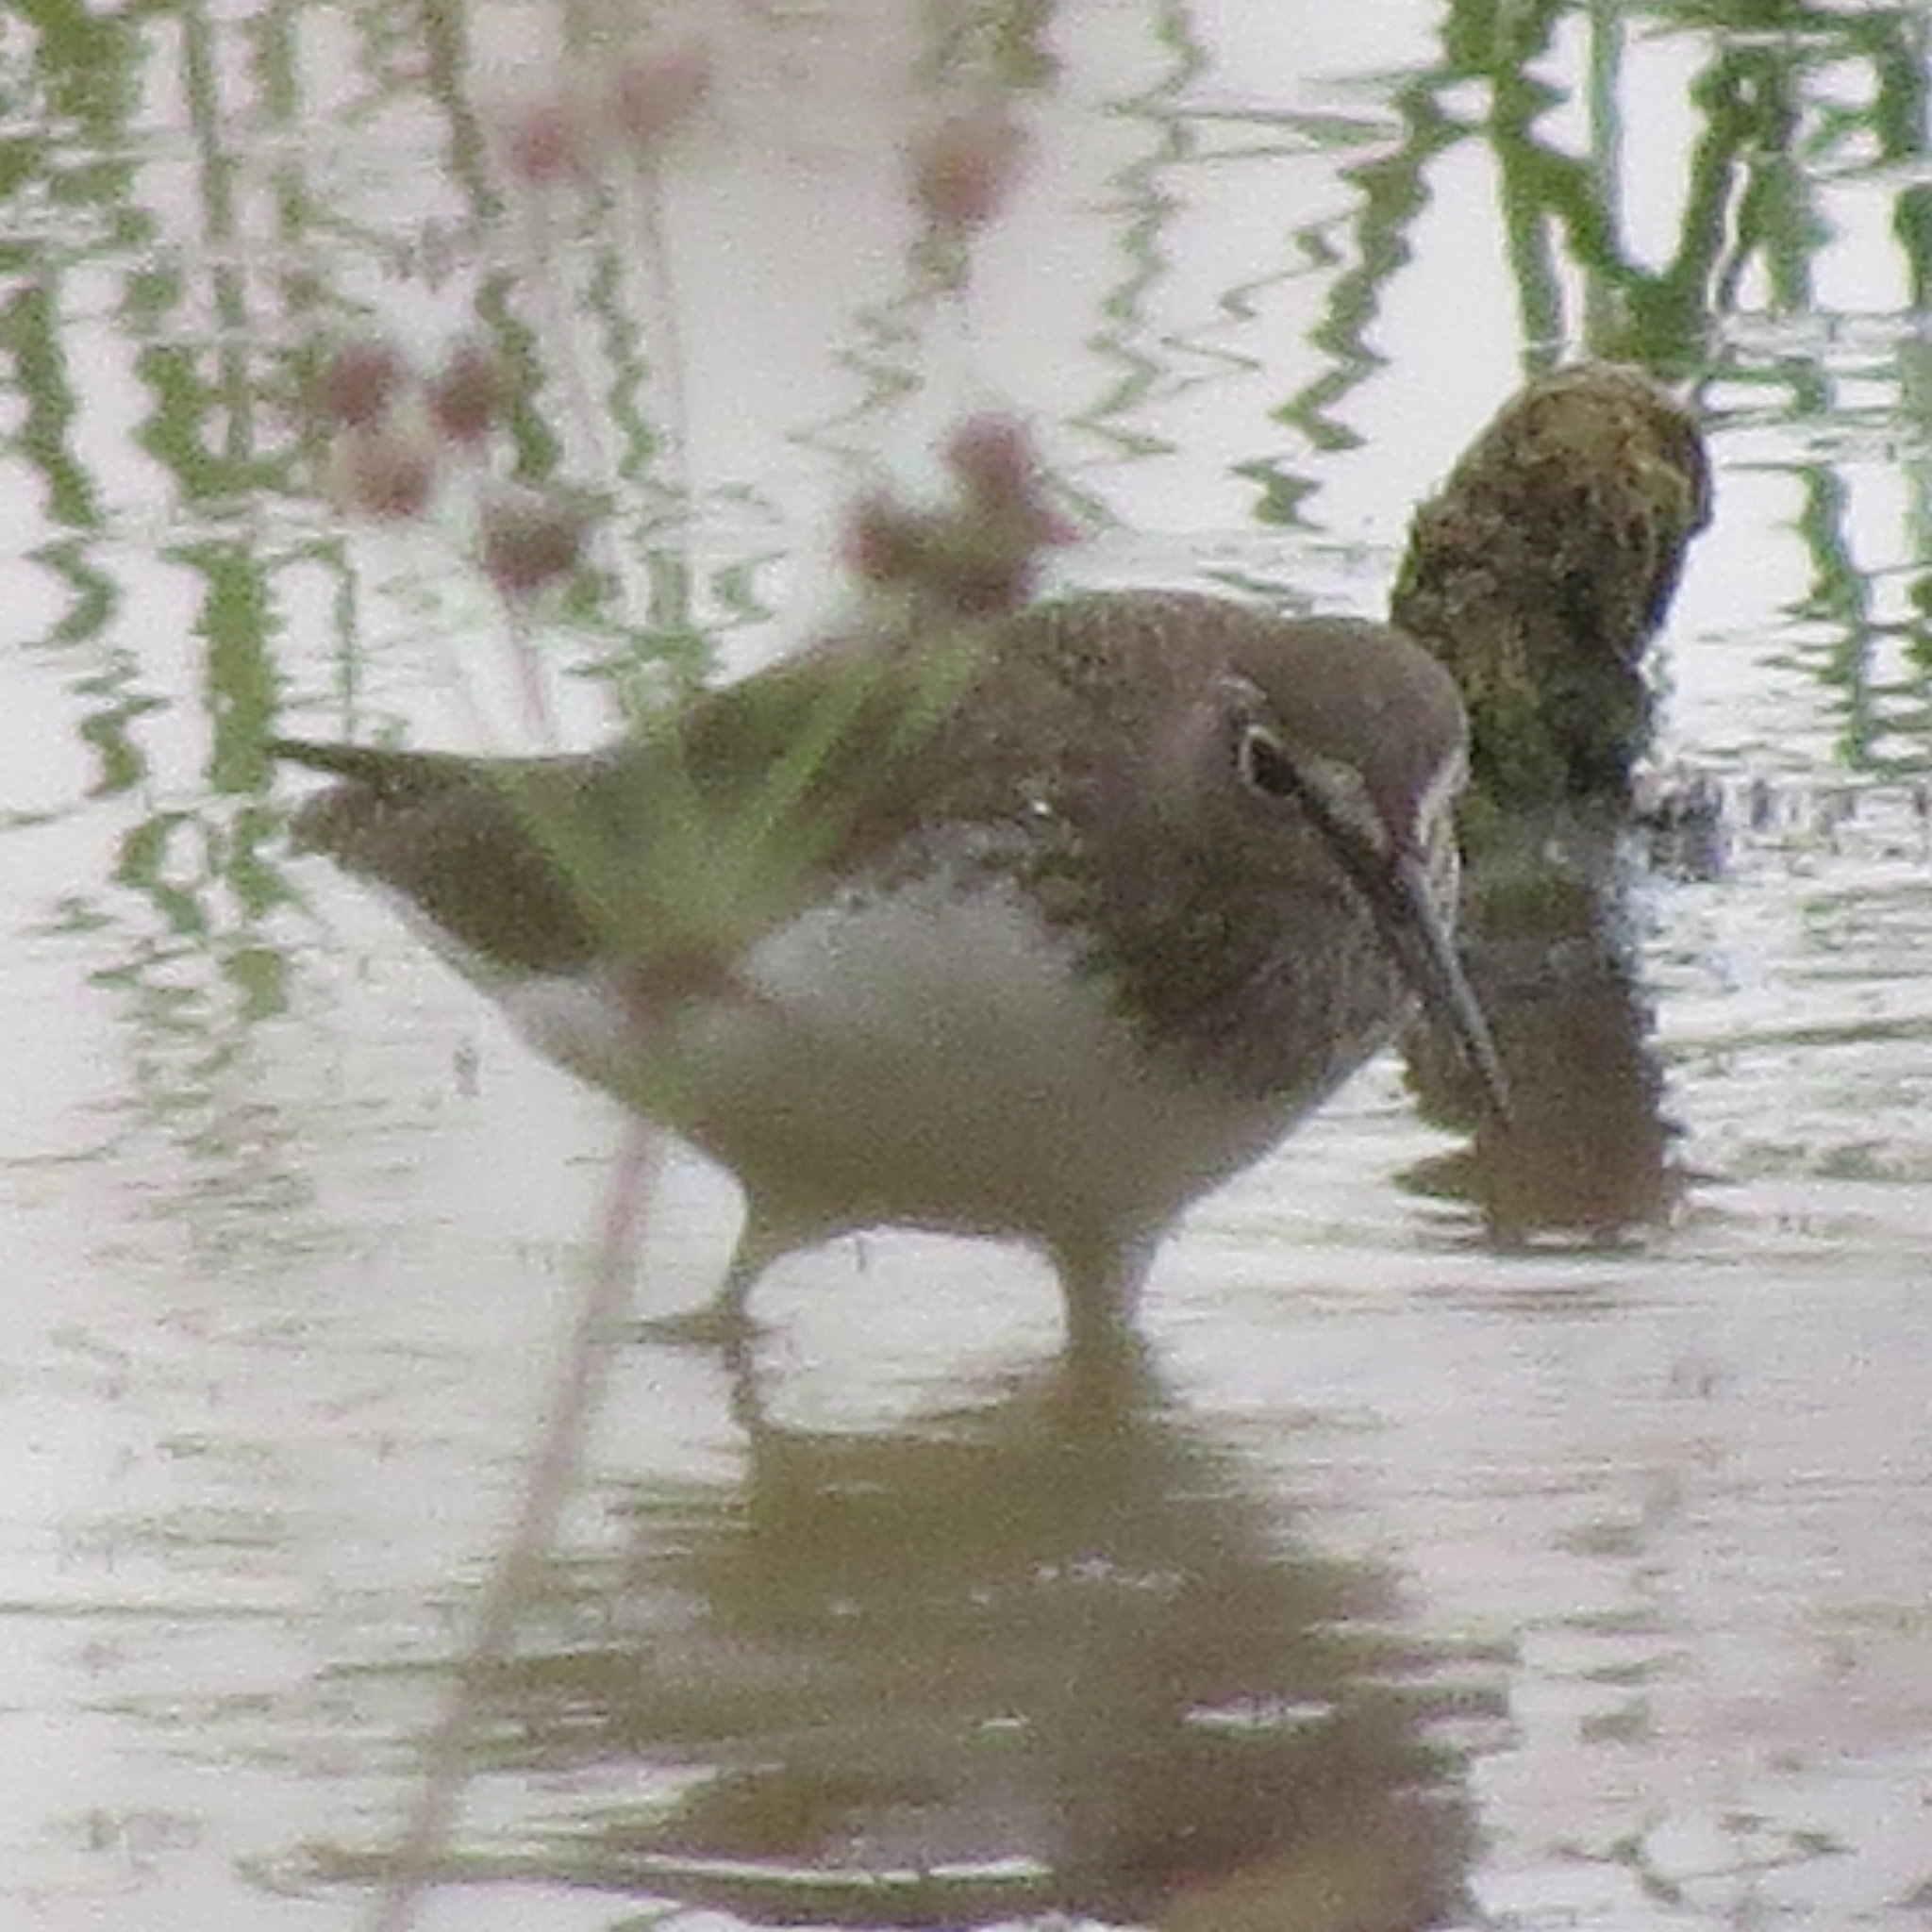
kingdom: Animalia
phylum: Chordata
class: Aves
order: Charadriiformes
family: Scolopacidae
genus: Tringa
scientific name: Tringa ochropus
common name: Green sandpiper
